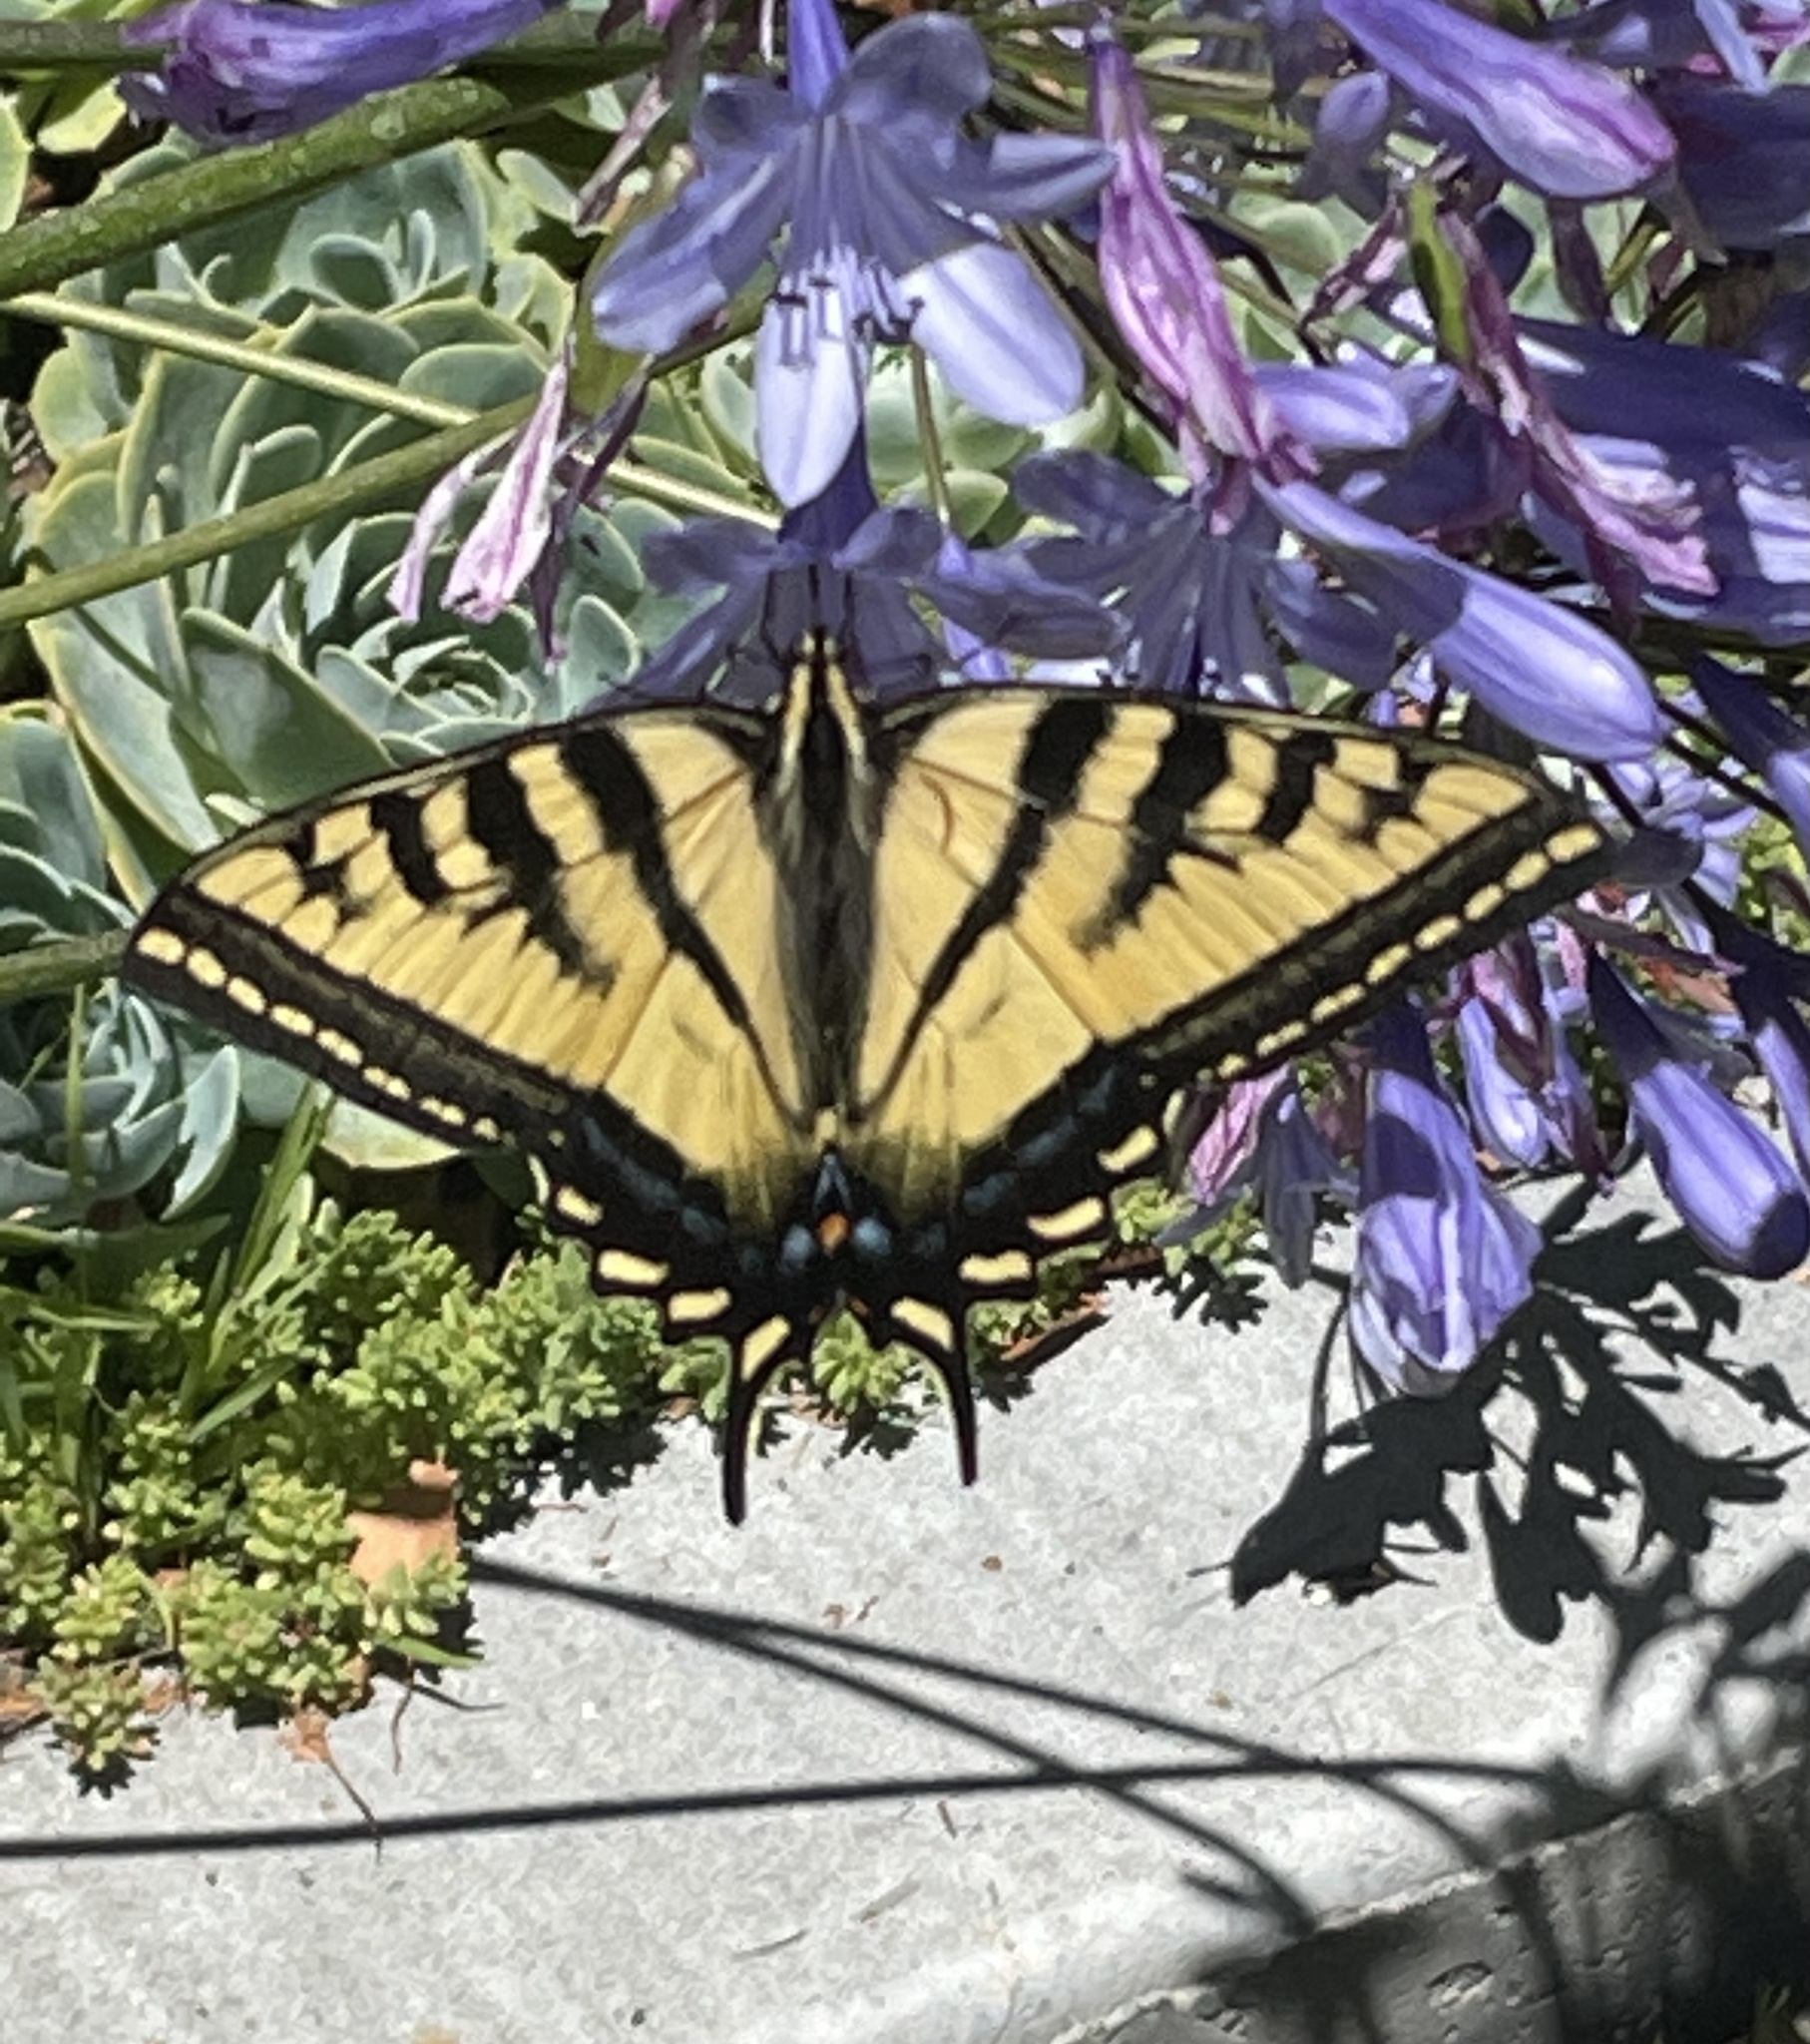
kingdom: Animalia
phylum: Arthropoda
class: Insecta
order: Lepidoptera
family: Papilionidae
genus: Papilio
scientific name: Papilio rutulus
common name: Western tiger swallowtail
